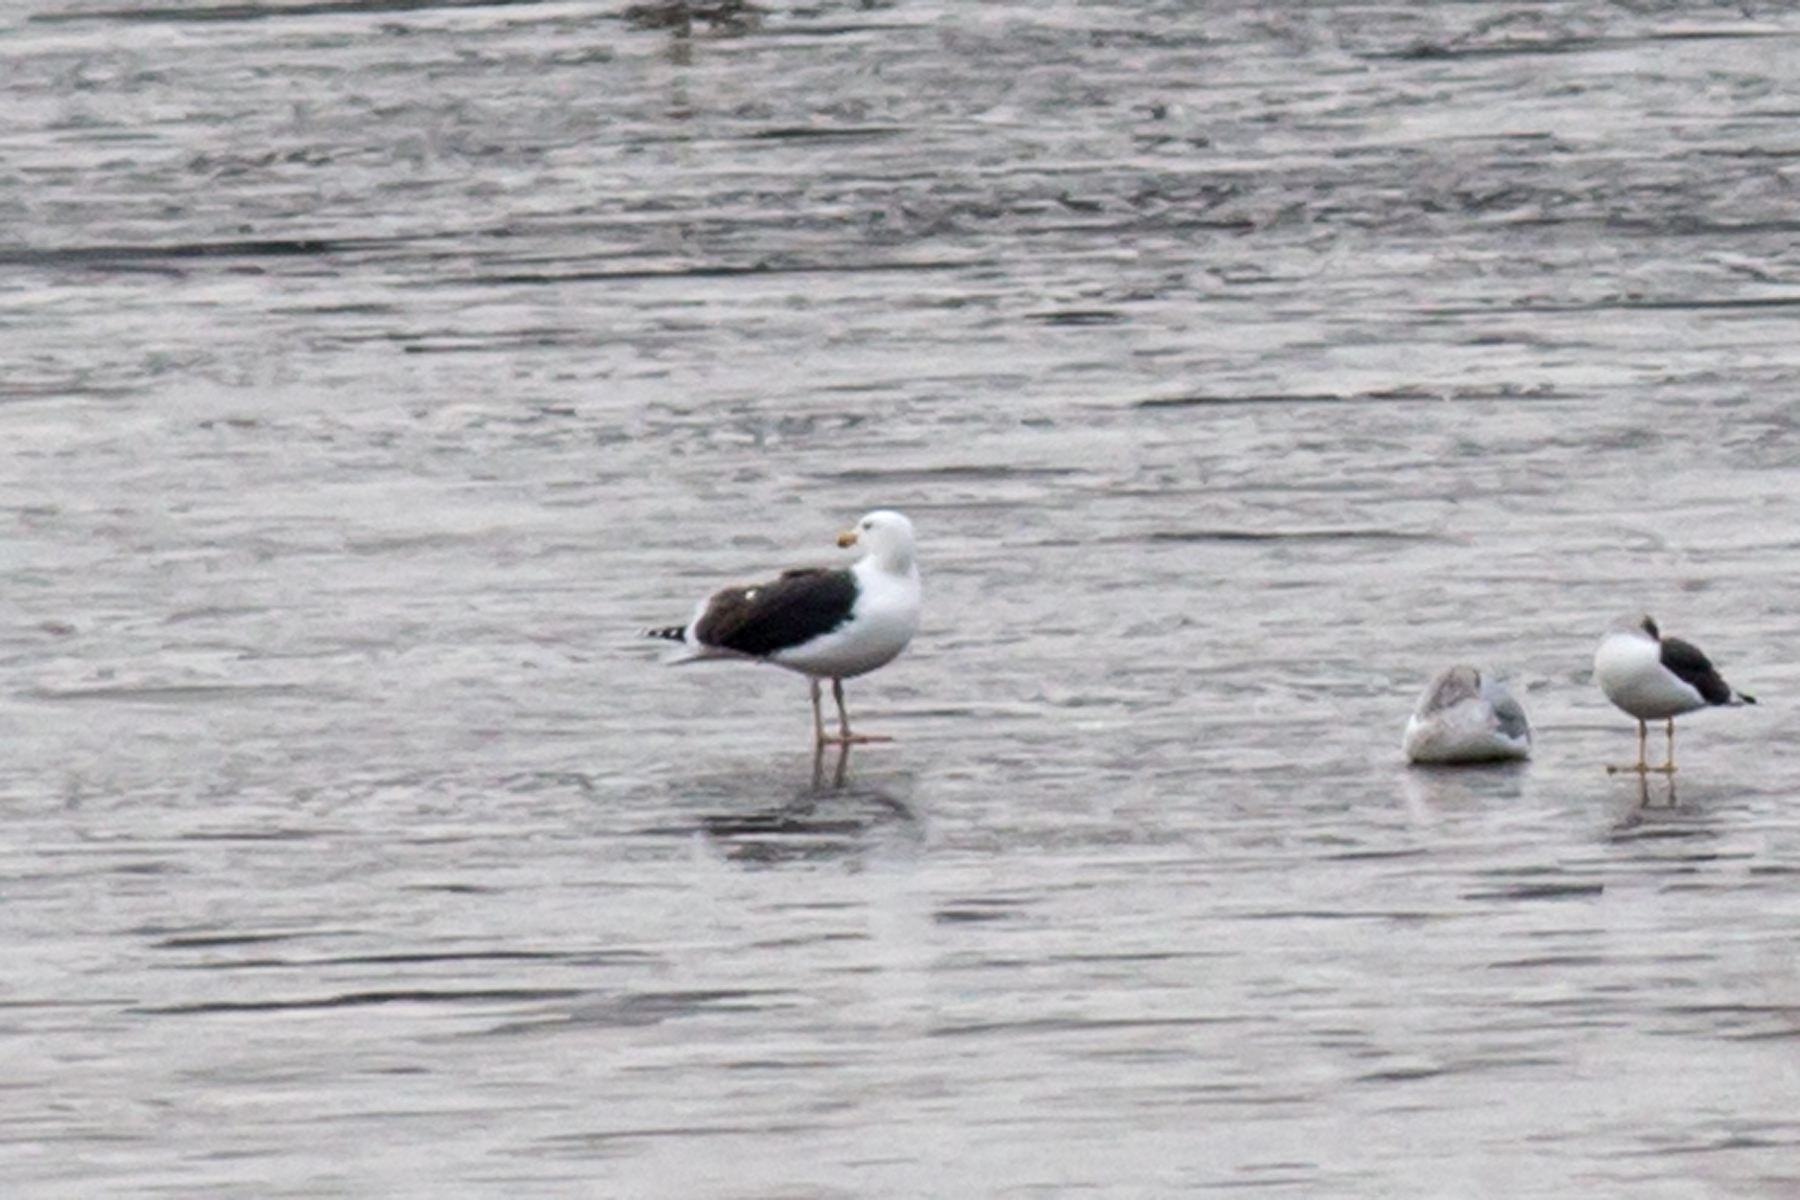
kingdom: Animalia
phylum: Chordata
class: Aves
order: Charadriiformes
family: Laridae
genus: Larus
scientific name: Larus marinus
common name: Great black-backed gull
